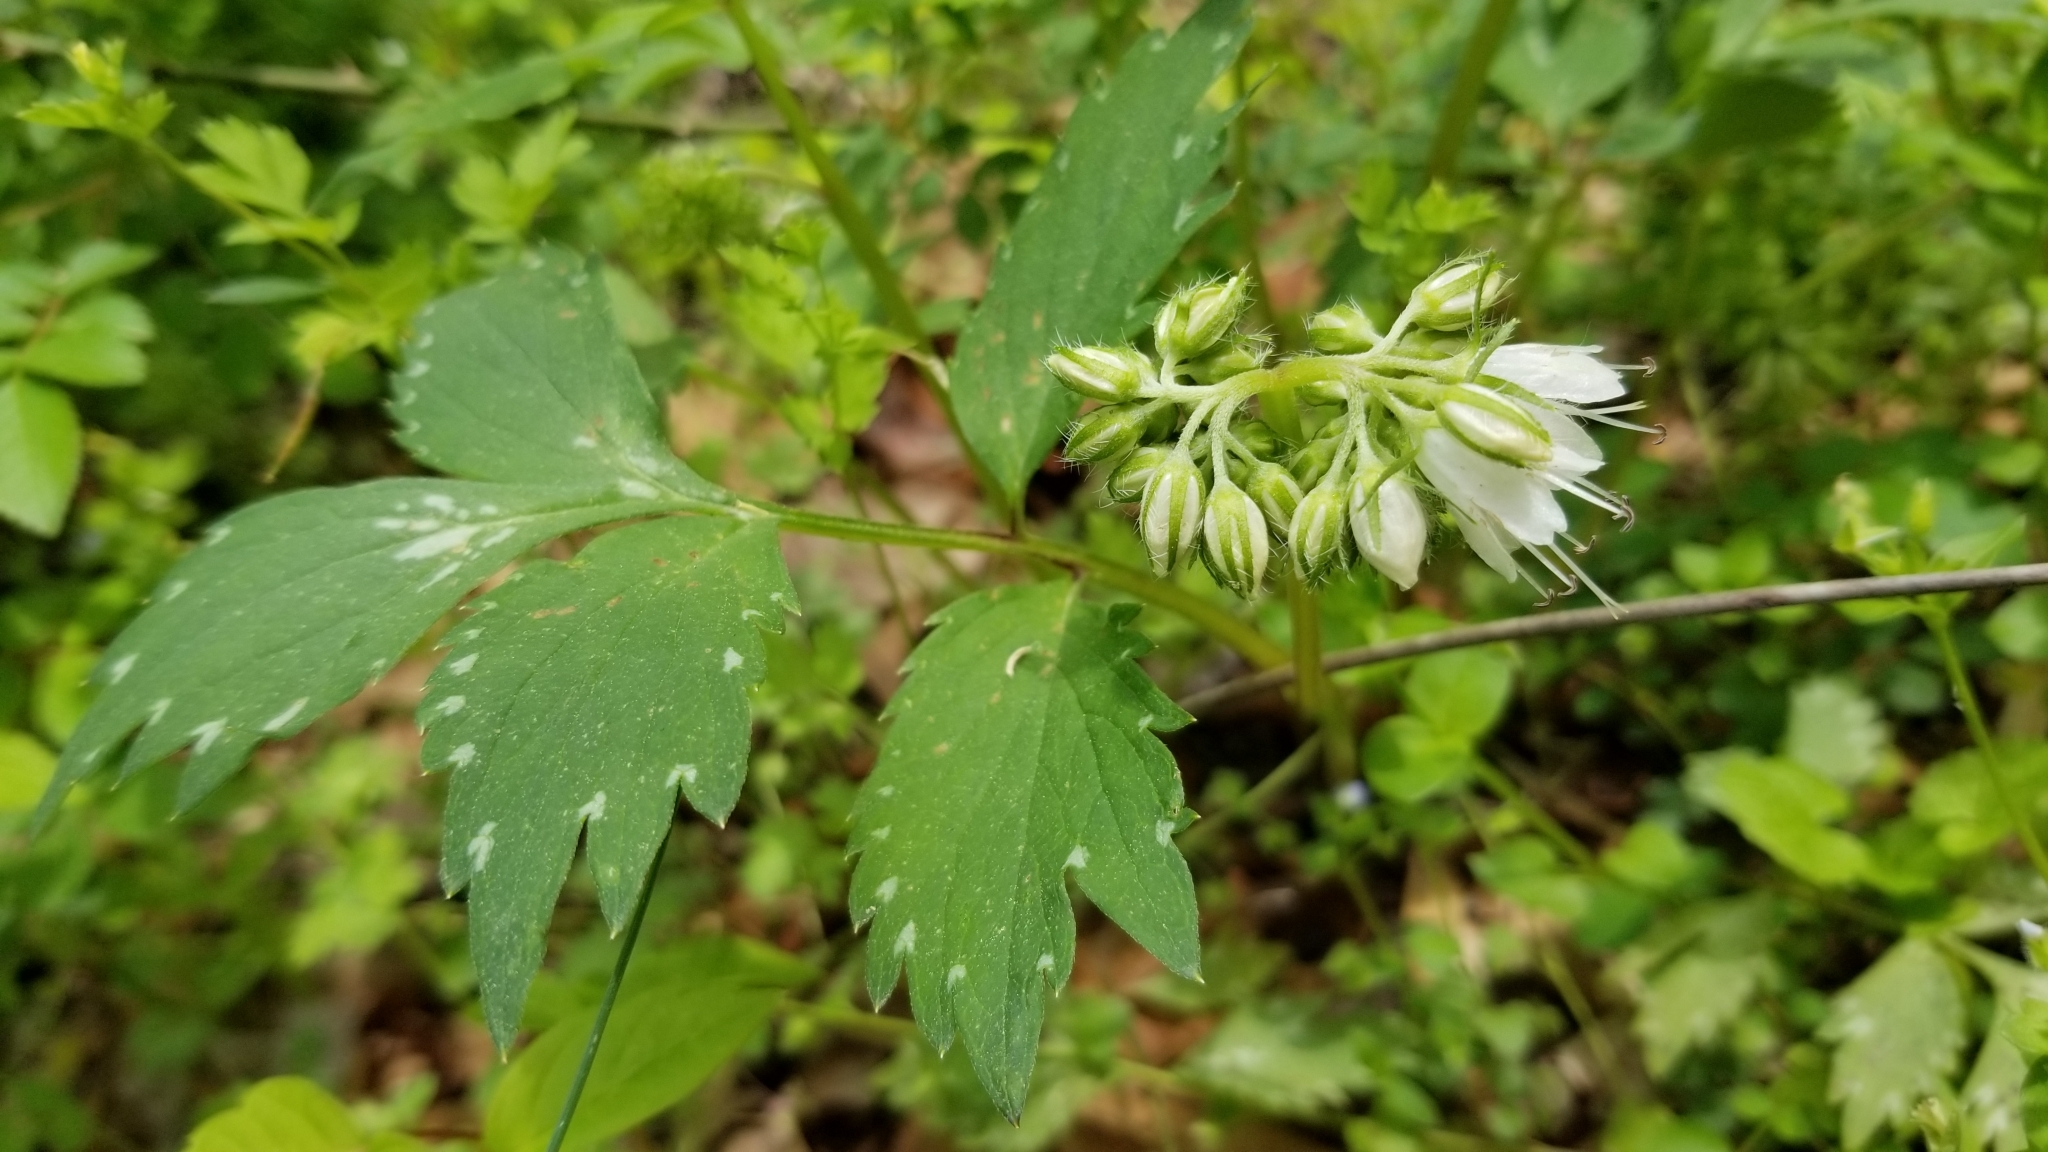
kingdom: Plantae
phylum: Tracheophyta
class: Magnoliopsida
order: Boraginales
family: Hydrophyllaceae
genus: Hydrophyllum
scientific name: Hydrophyllum virginianum
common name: Virginia waterleaf
